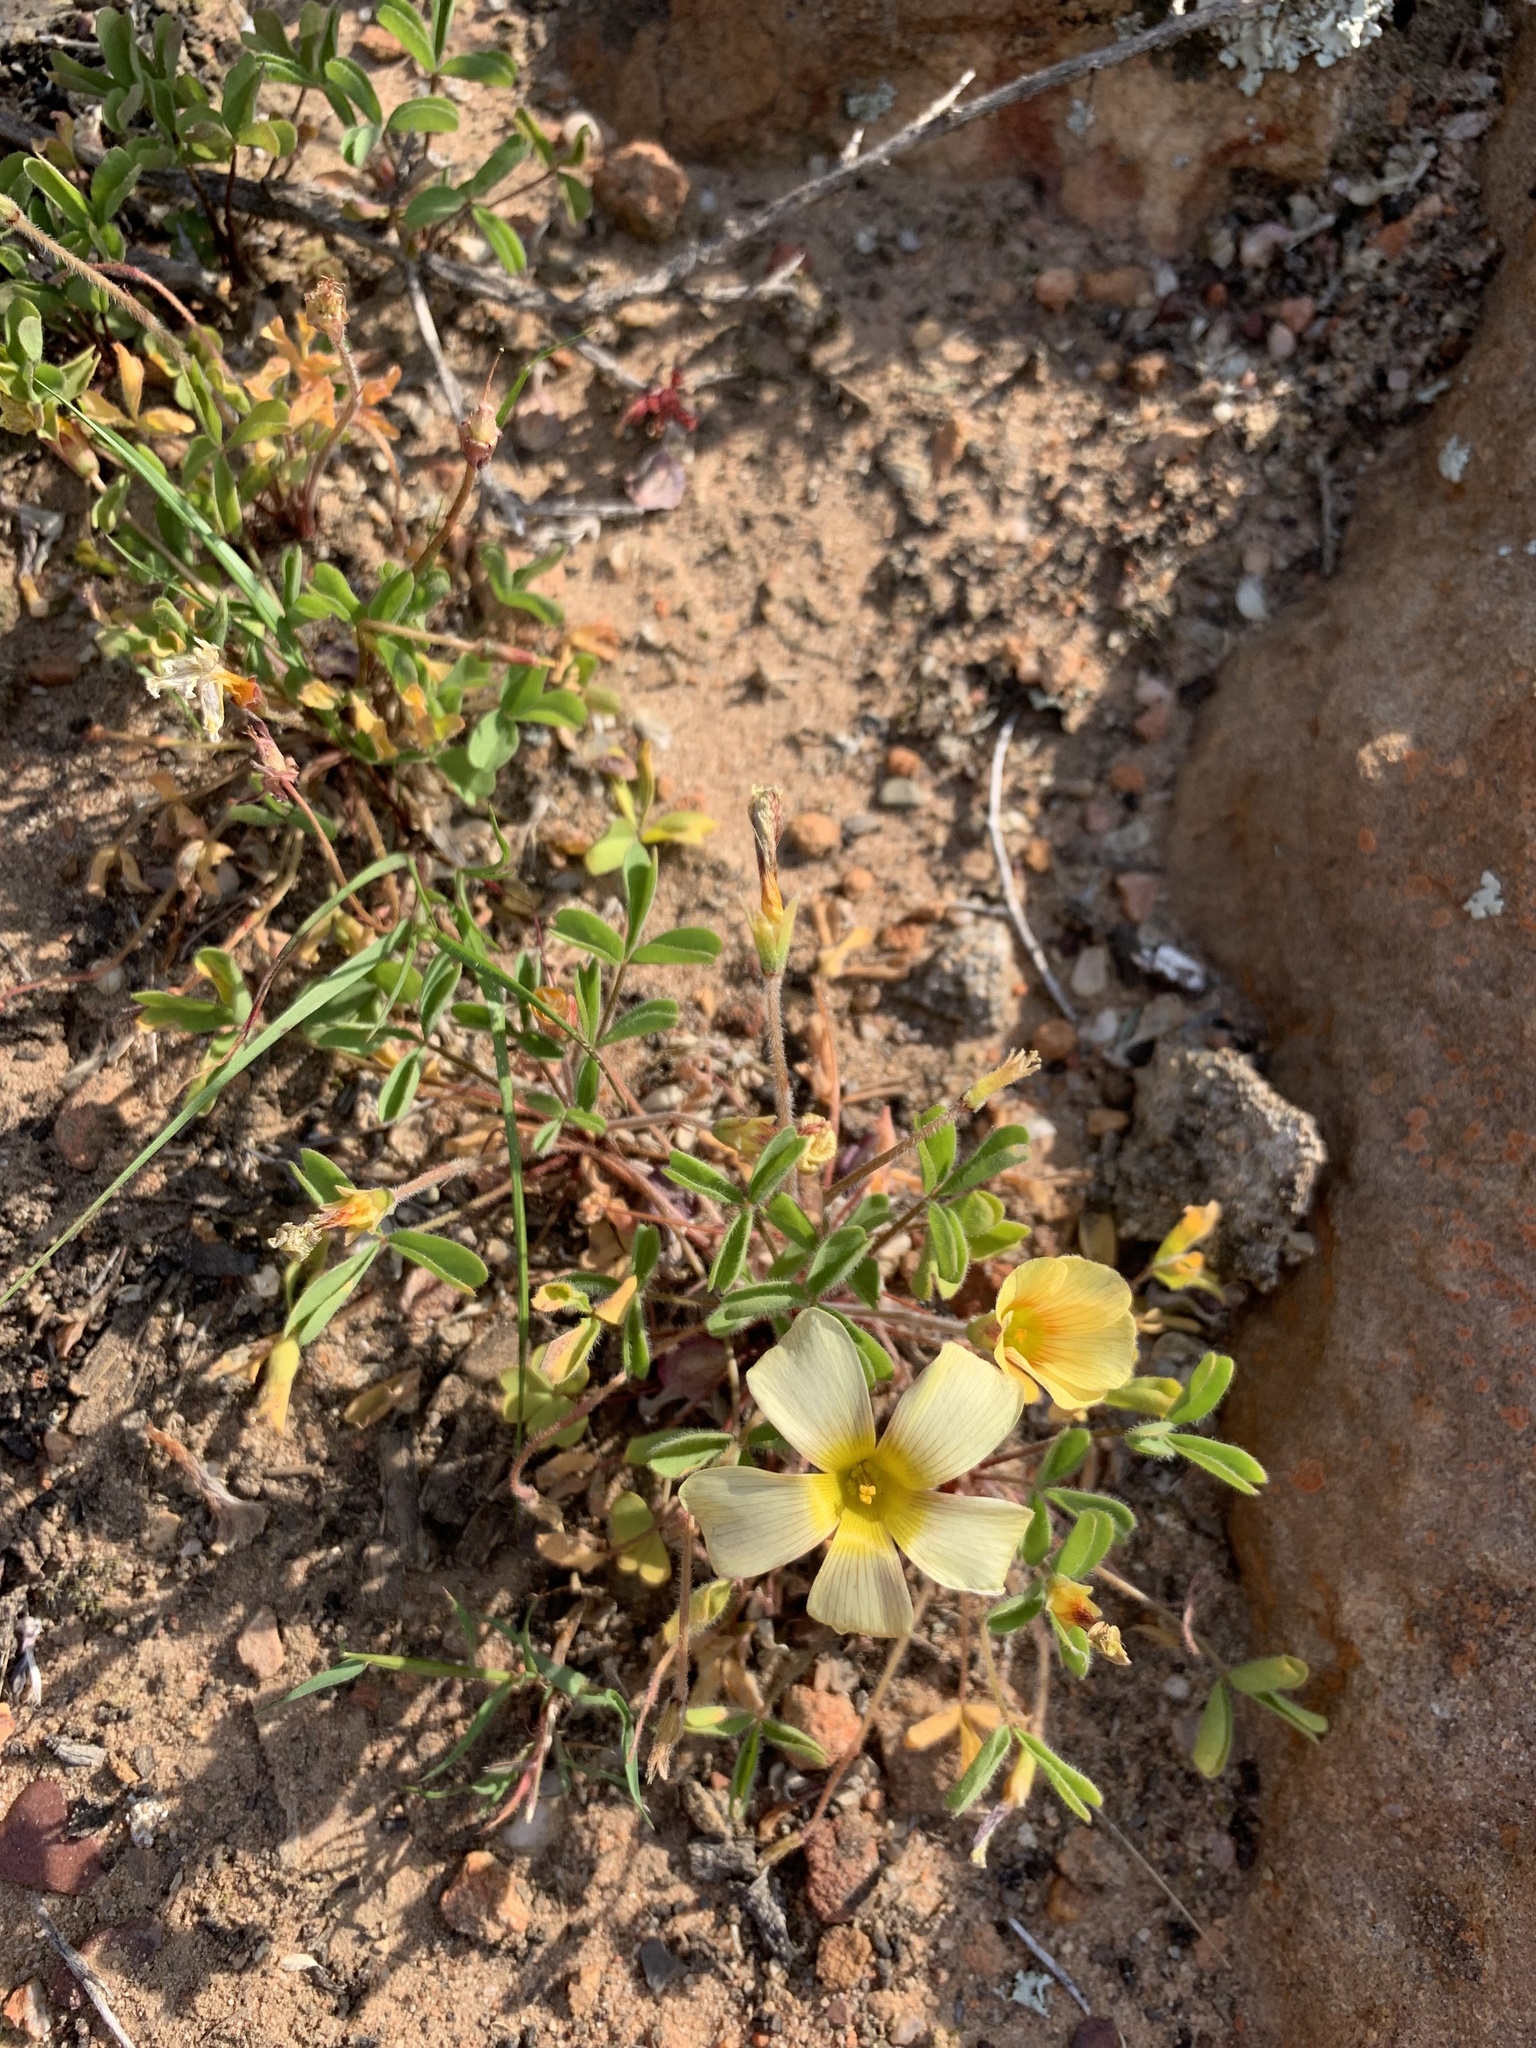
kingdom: Plantae
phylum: Tracheophyta
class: Magnoliopsida
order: Oxalidales
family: Oxalidaceae
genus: Oxalis
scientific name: Oxalis obtusa
